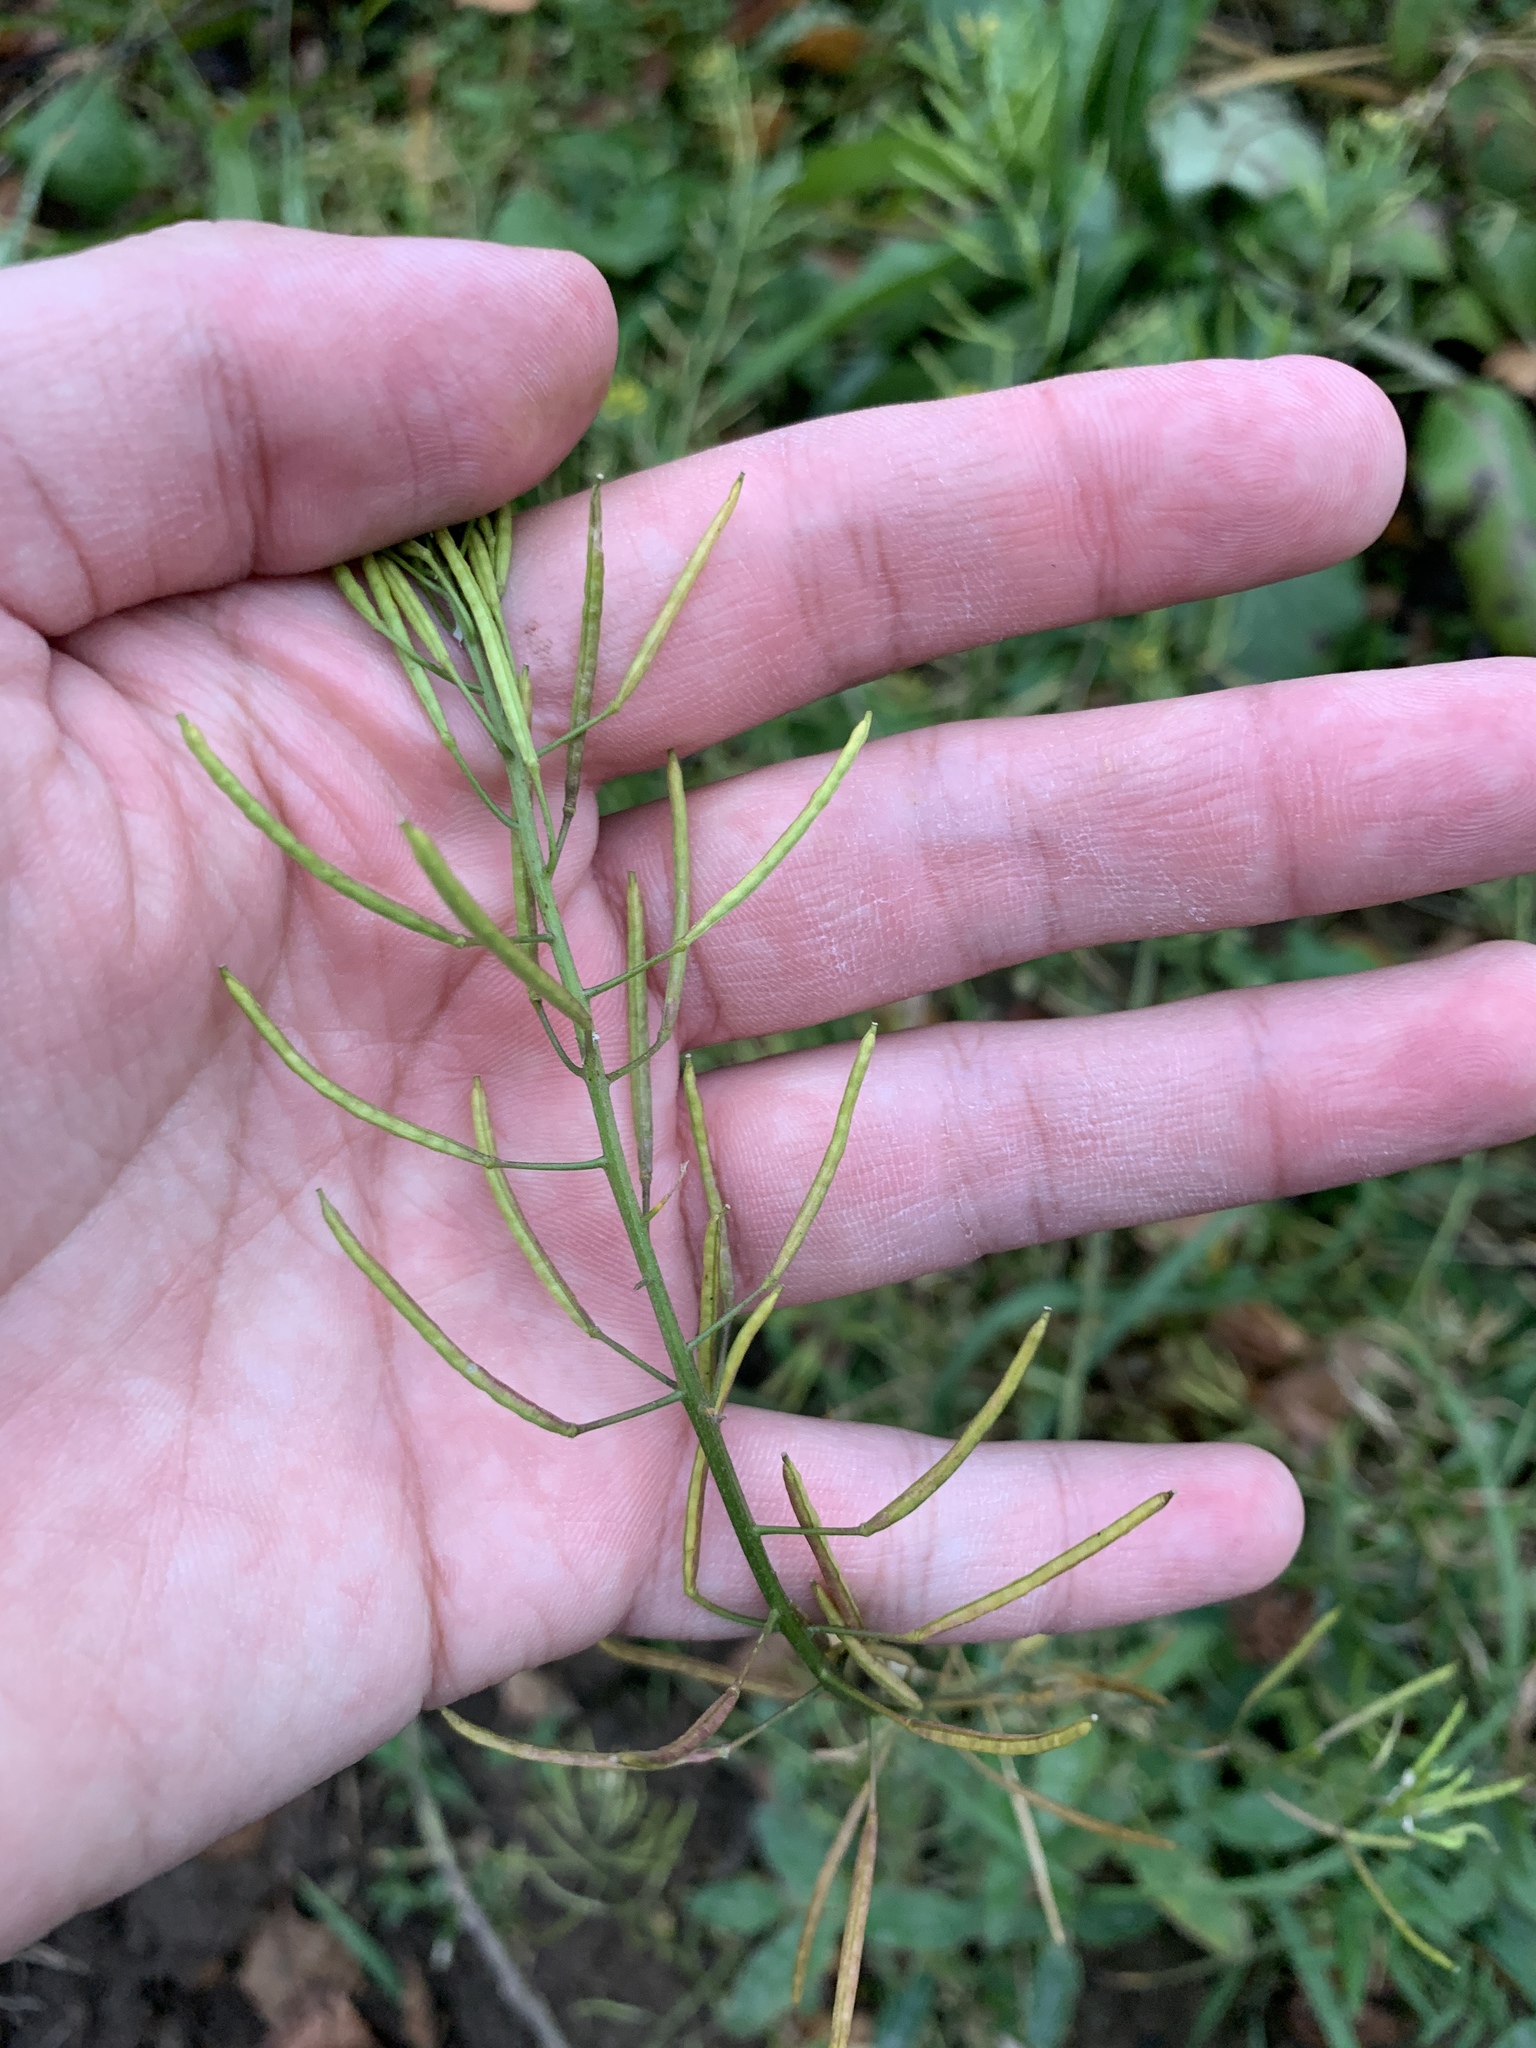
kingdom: Plantae
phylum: Tracheophyta
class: Magnoliopsida
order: Brassicales
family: Brassicaceae
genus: Erysimum
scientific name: Erysimum cheiranthoides
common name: Treacle mustard
